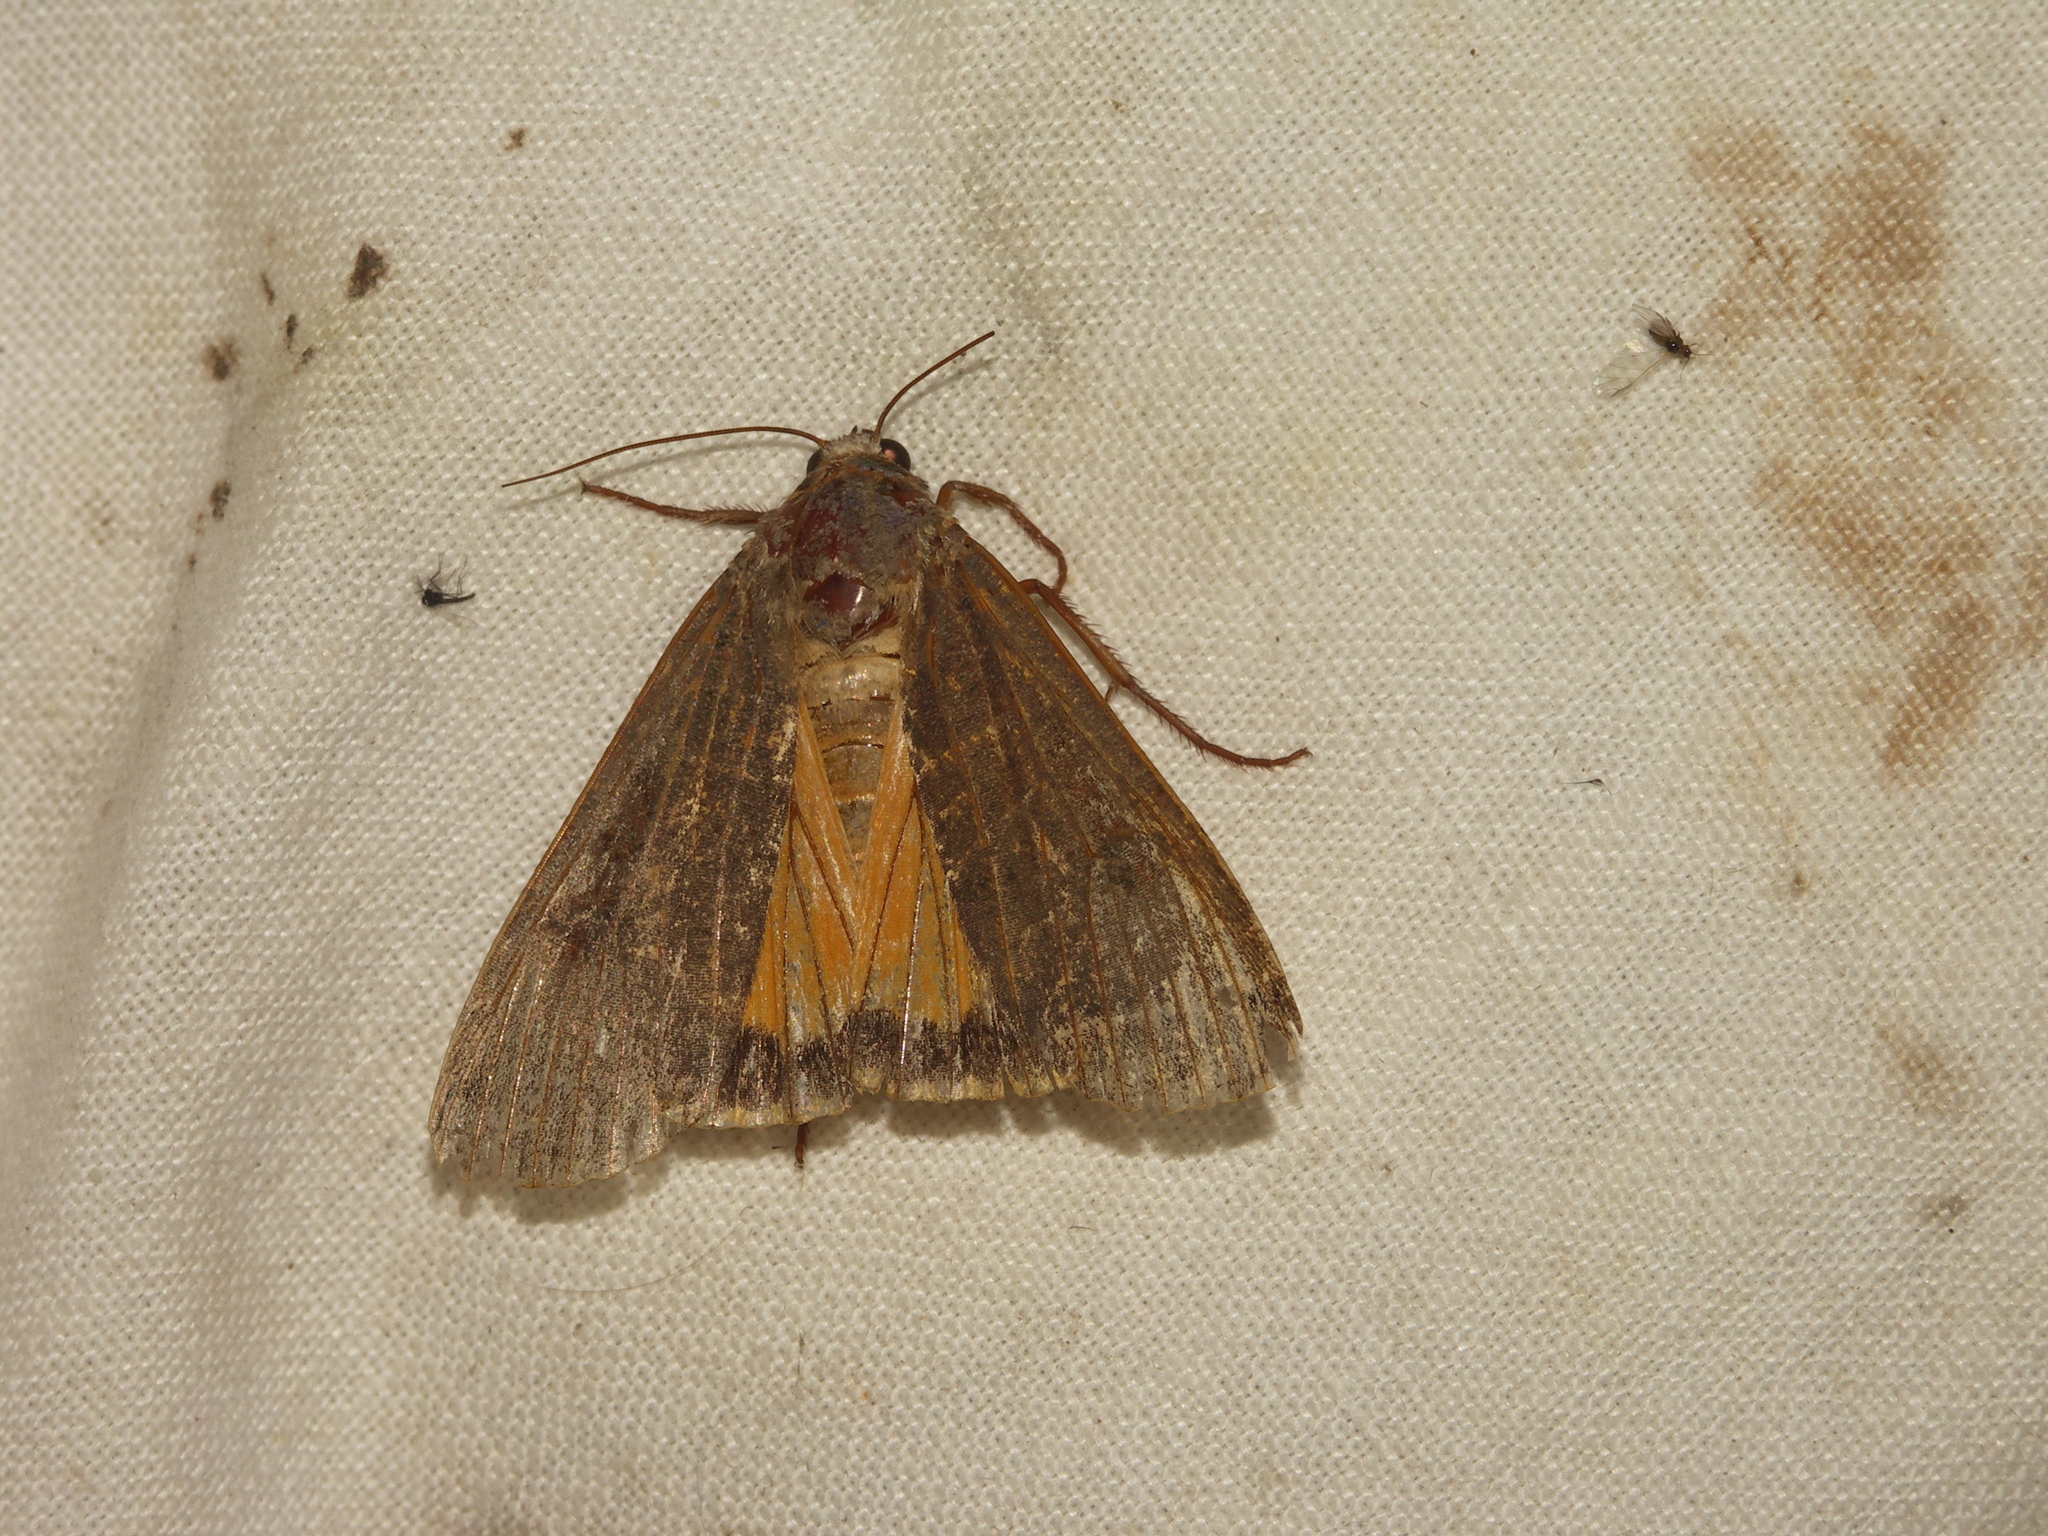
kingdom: Animalia
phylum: Arthropoda
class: Insecta
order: Lepidoptera
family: Noctuidae
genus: Noctua
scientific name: Noctua pronuba
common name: Large yellow underwing
